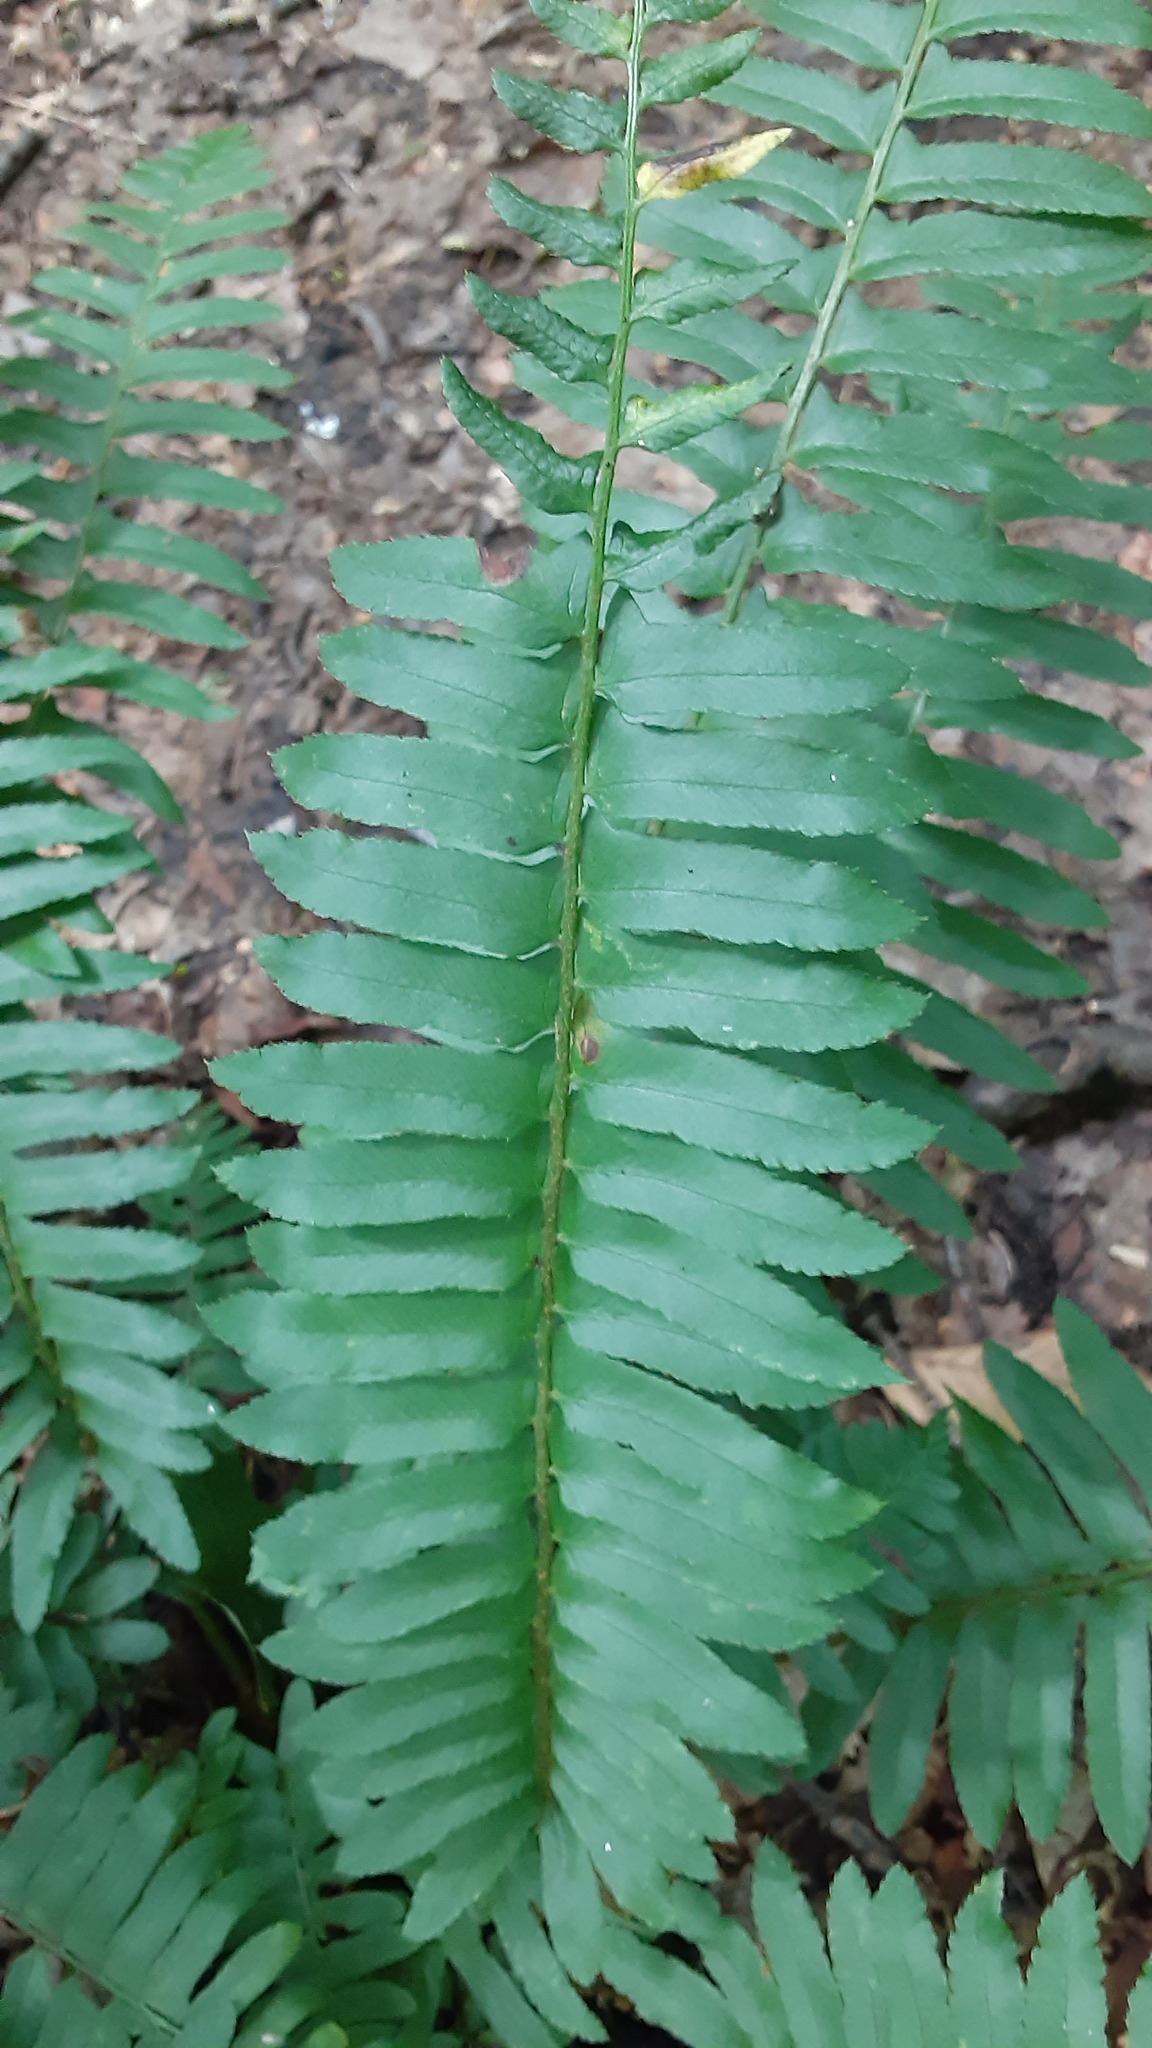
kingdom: Plantae
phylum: Tracheophyta
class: Polypodiopsida
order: Polypodiales
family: Dryopteridaceae
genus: Polystichum
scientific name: Polystichum acrostichoides
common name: Christmas fern
